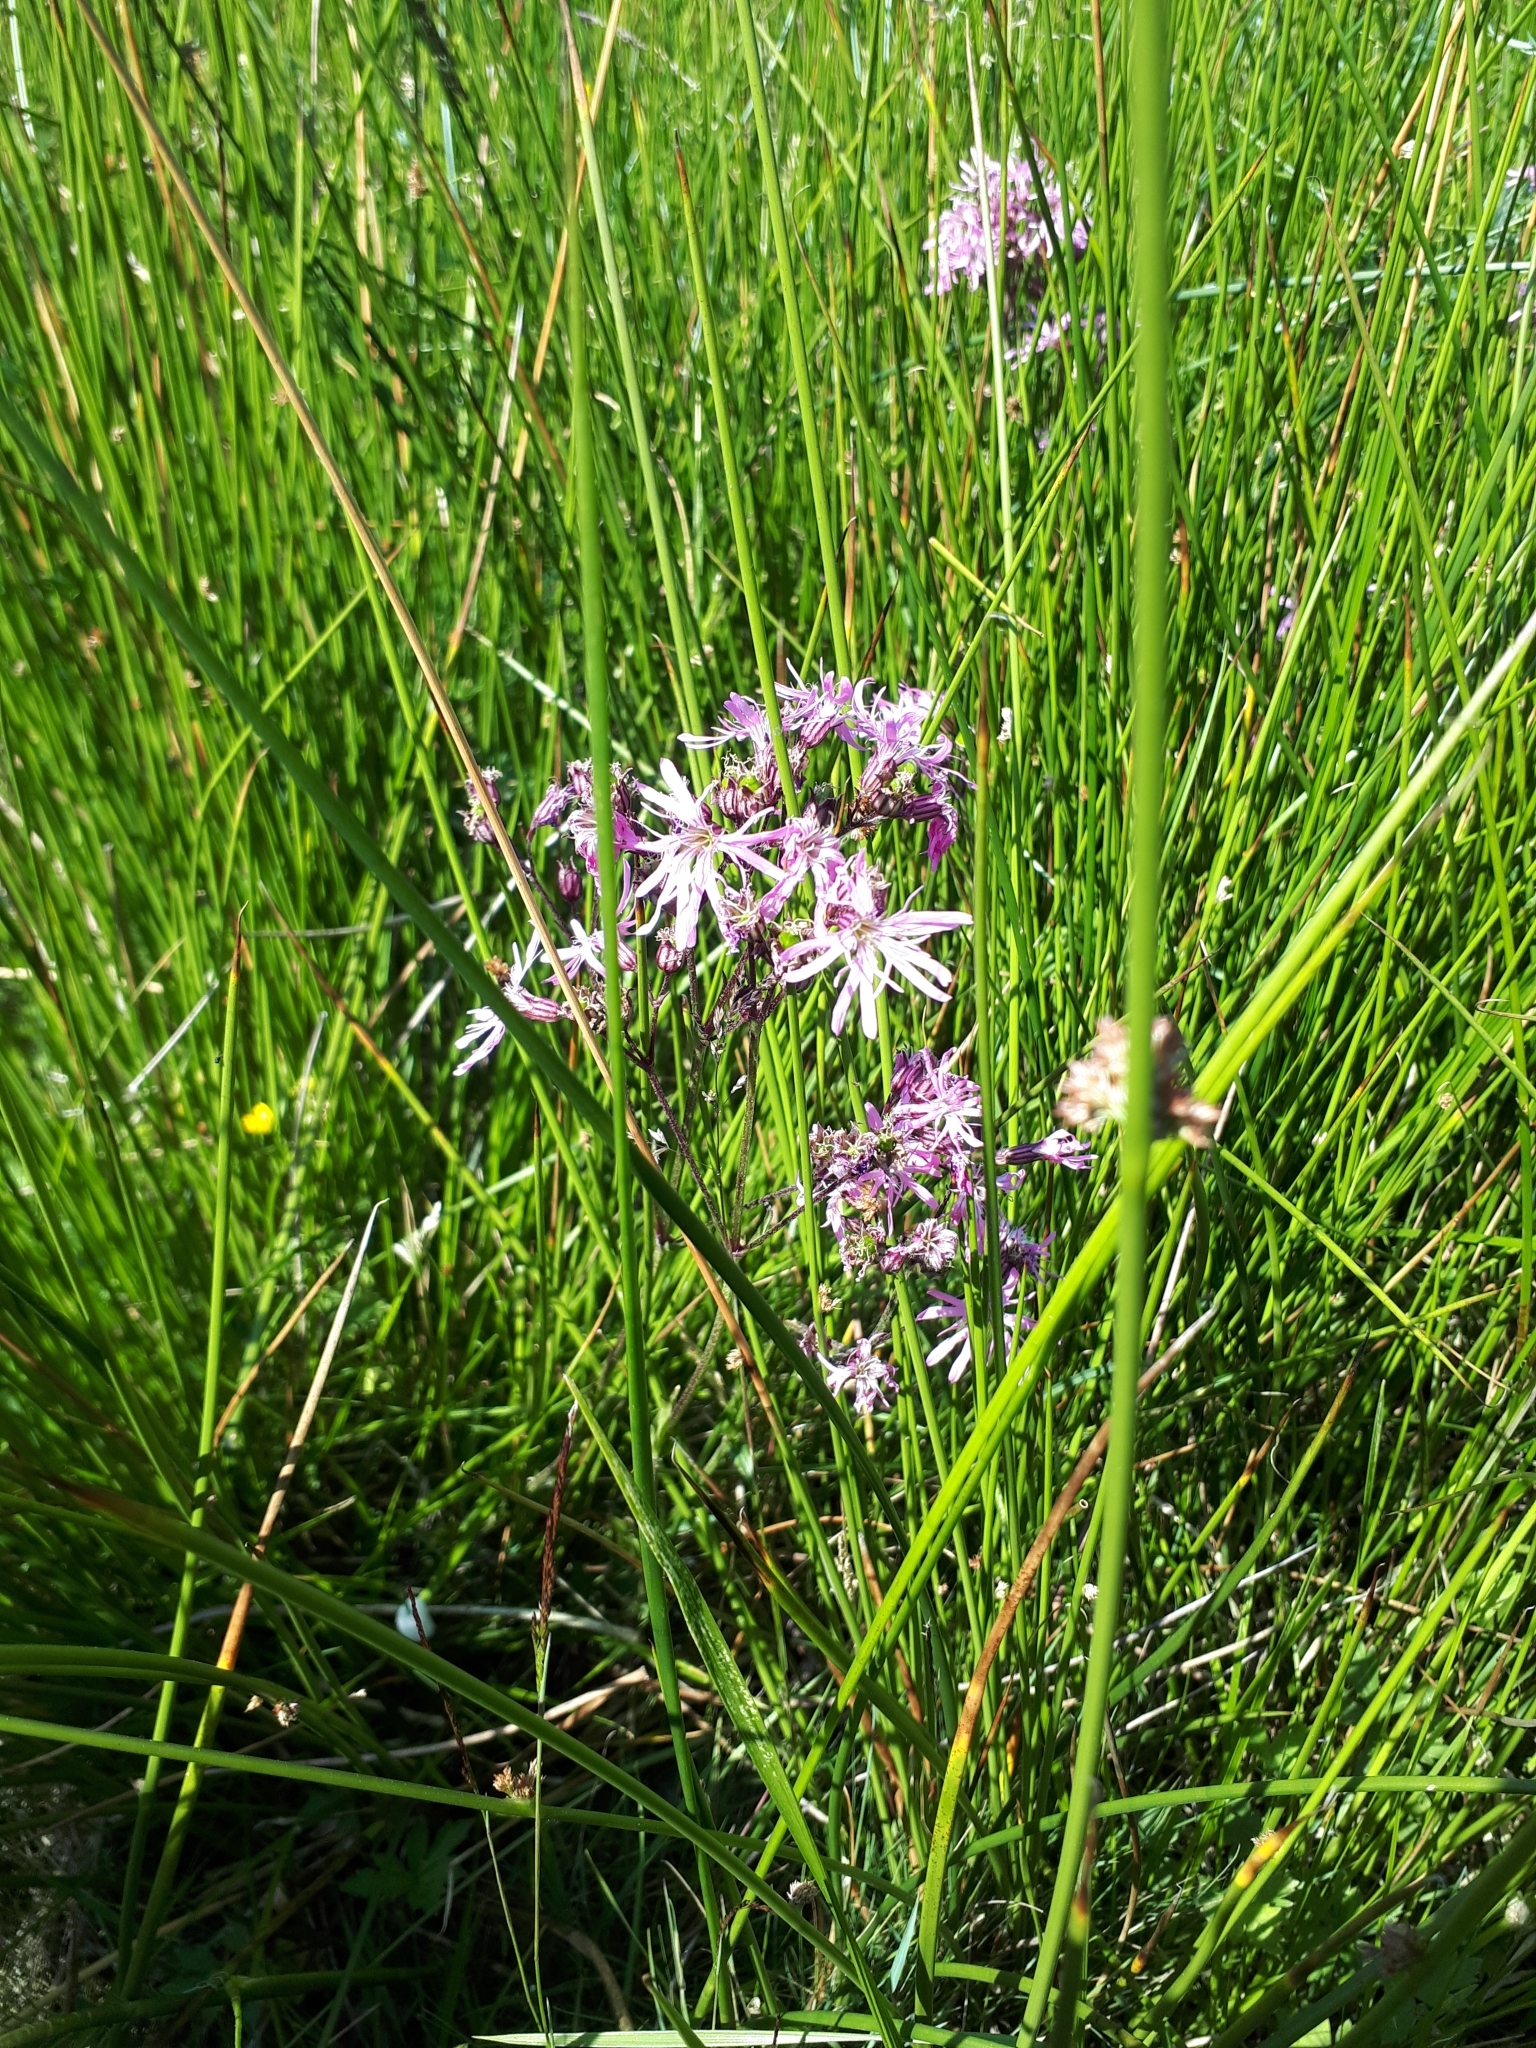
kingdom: Plantae
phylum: Tracheophyta
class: Magnoliopsida
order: Caryophyllales
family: Caryophyllaceae
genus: Silene
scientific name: Silene flos-cuculi
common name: Ragged-robin
